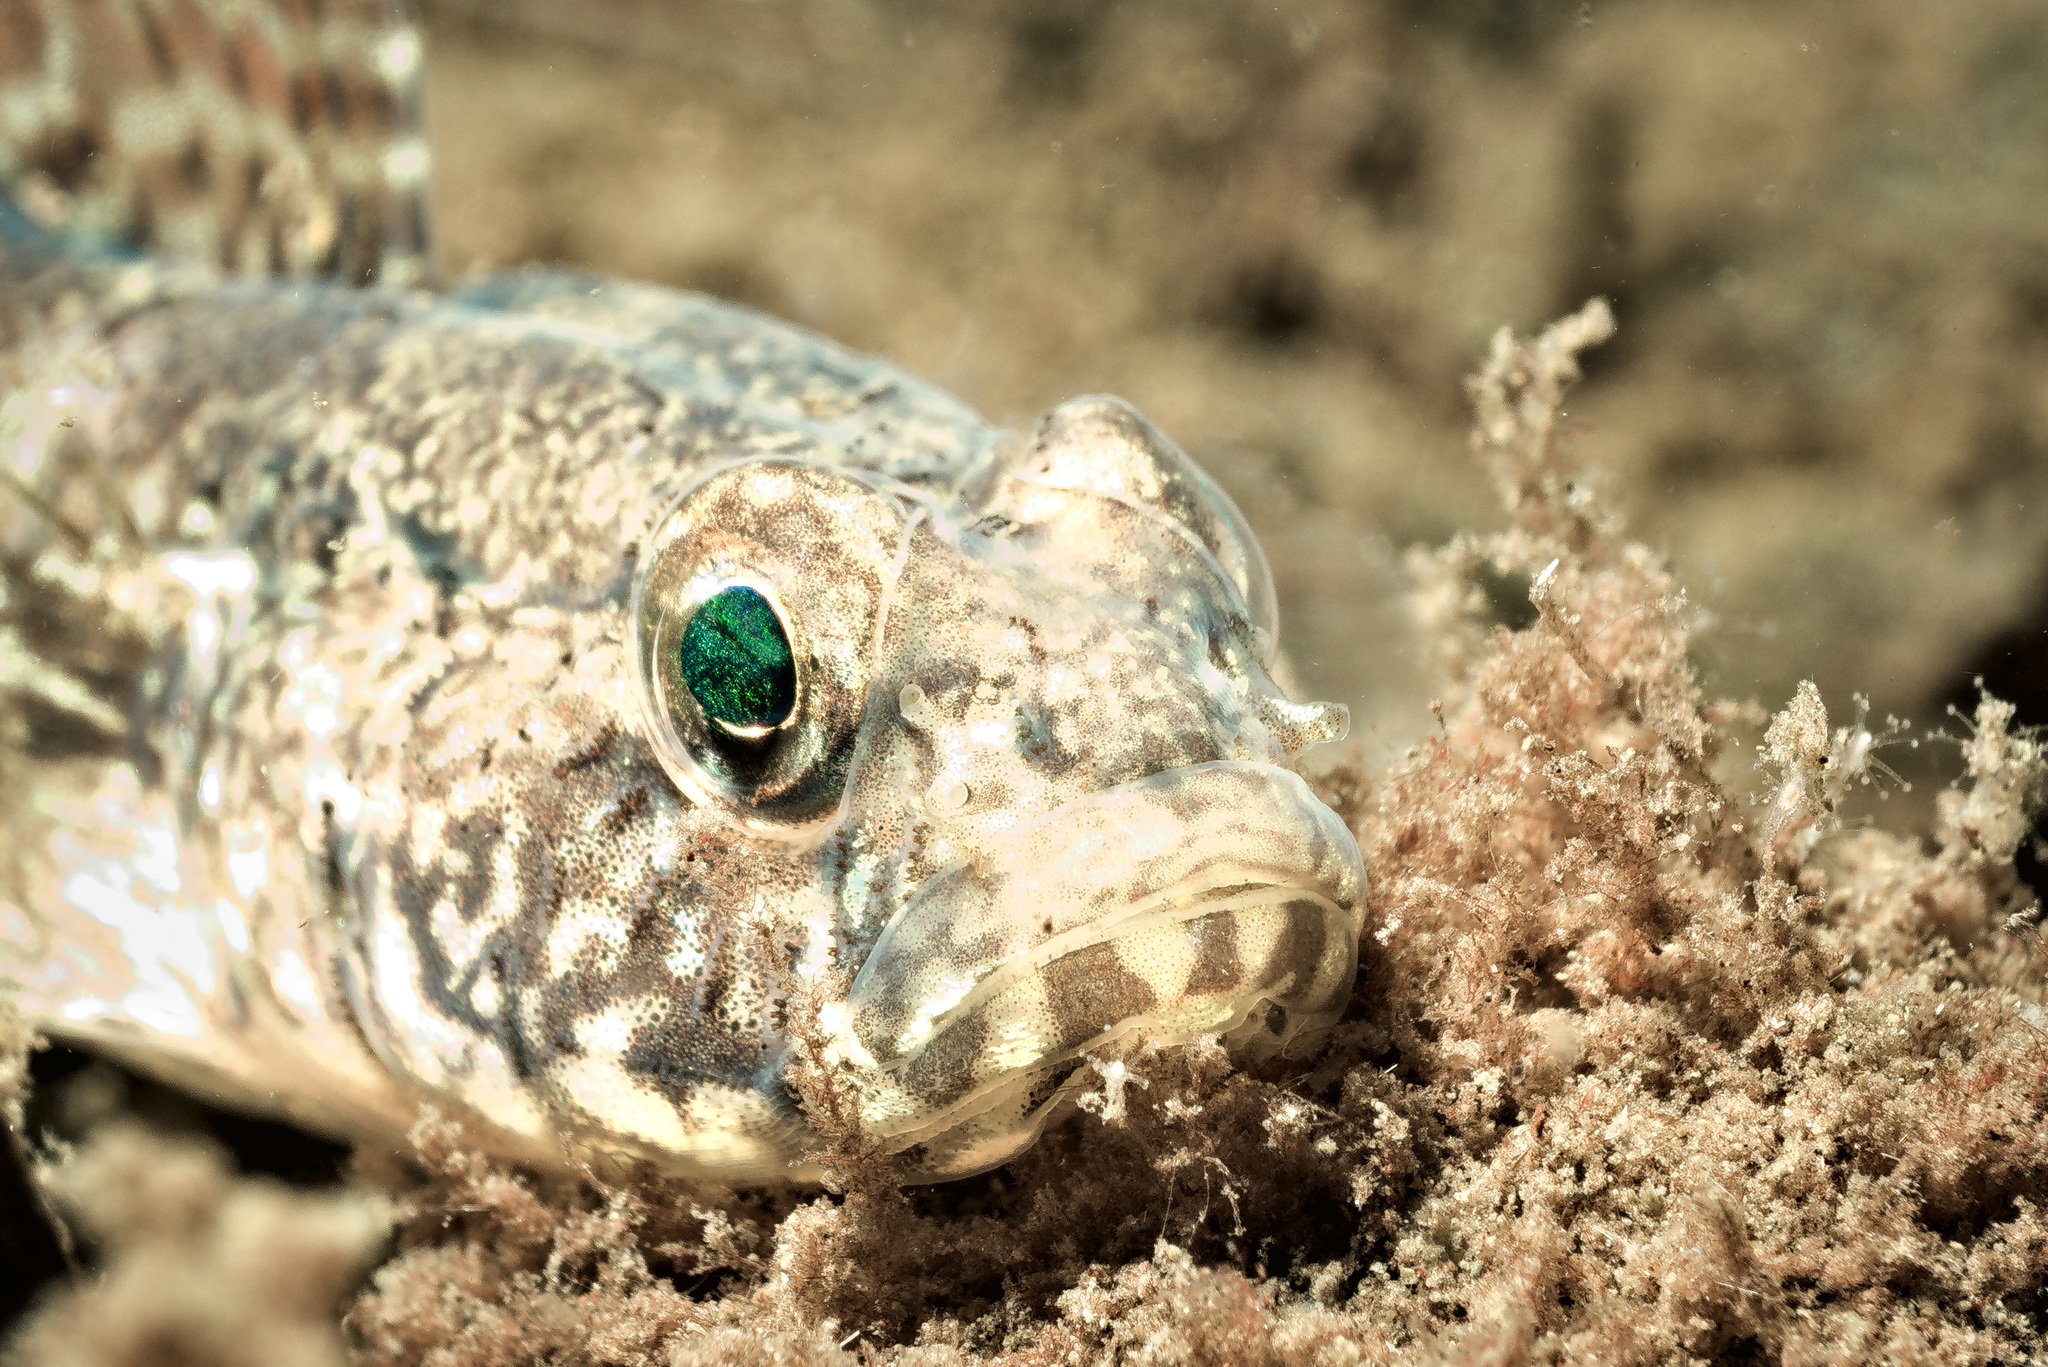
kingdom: Animalia
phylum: Chordata
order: Perciformes
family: Gobiidae
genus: Gobius
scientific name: Gobius niger
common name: Black goby
